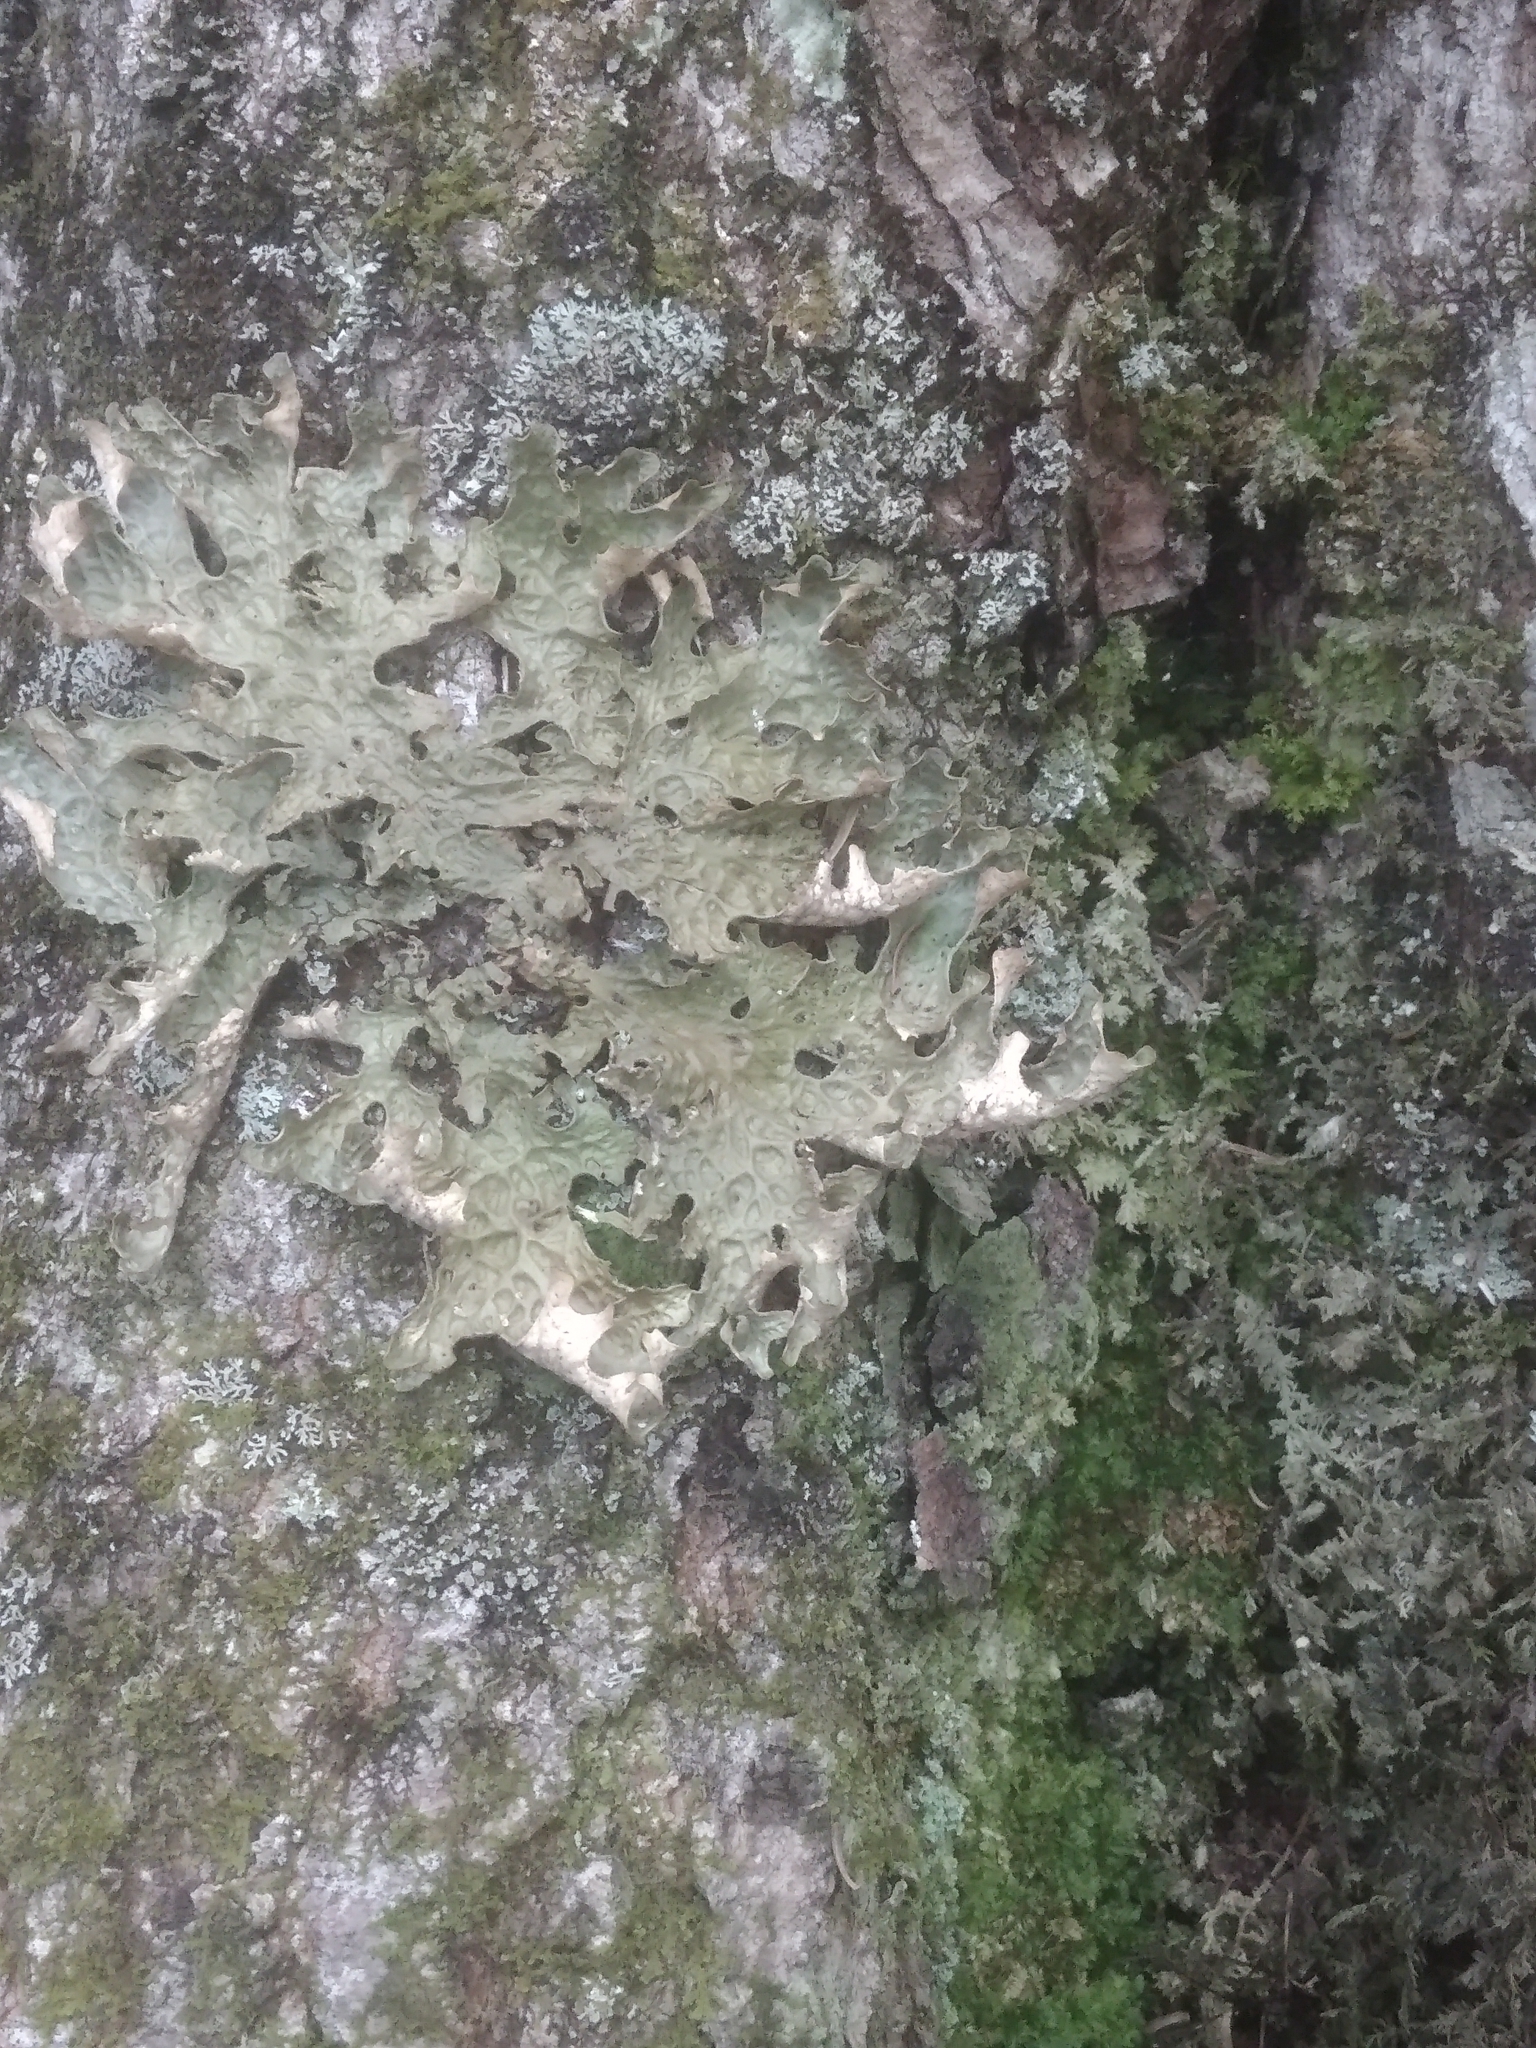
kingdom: Fungi
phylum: Ascomycota
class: Lecanoromycetes
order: Peltigerales
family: Lobariaceae
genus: Lobaria
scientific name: Lobaria pulmonaria
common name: Lungwort
